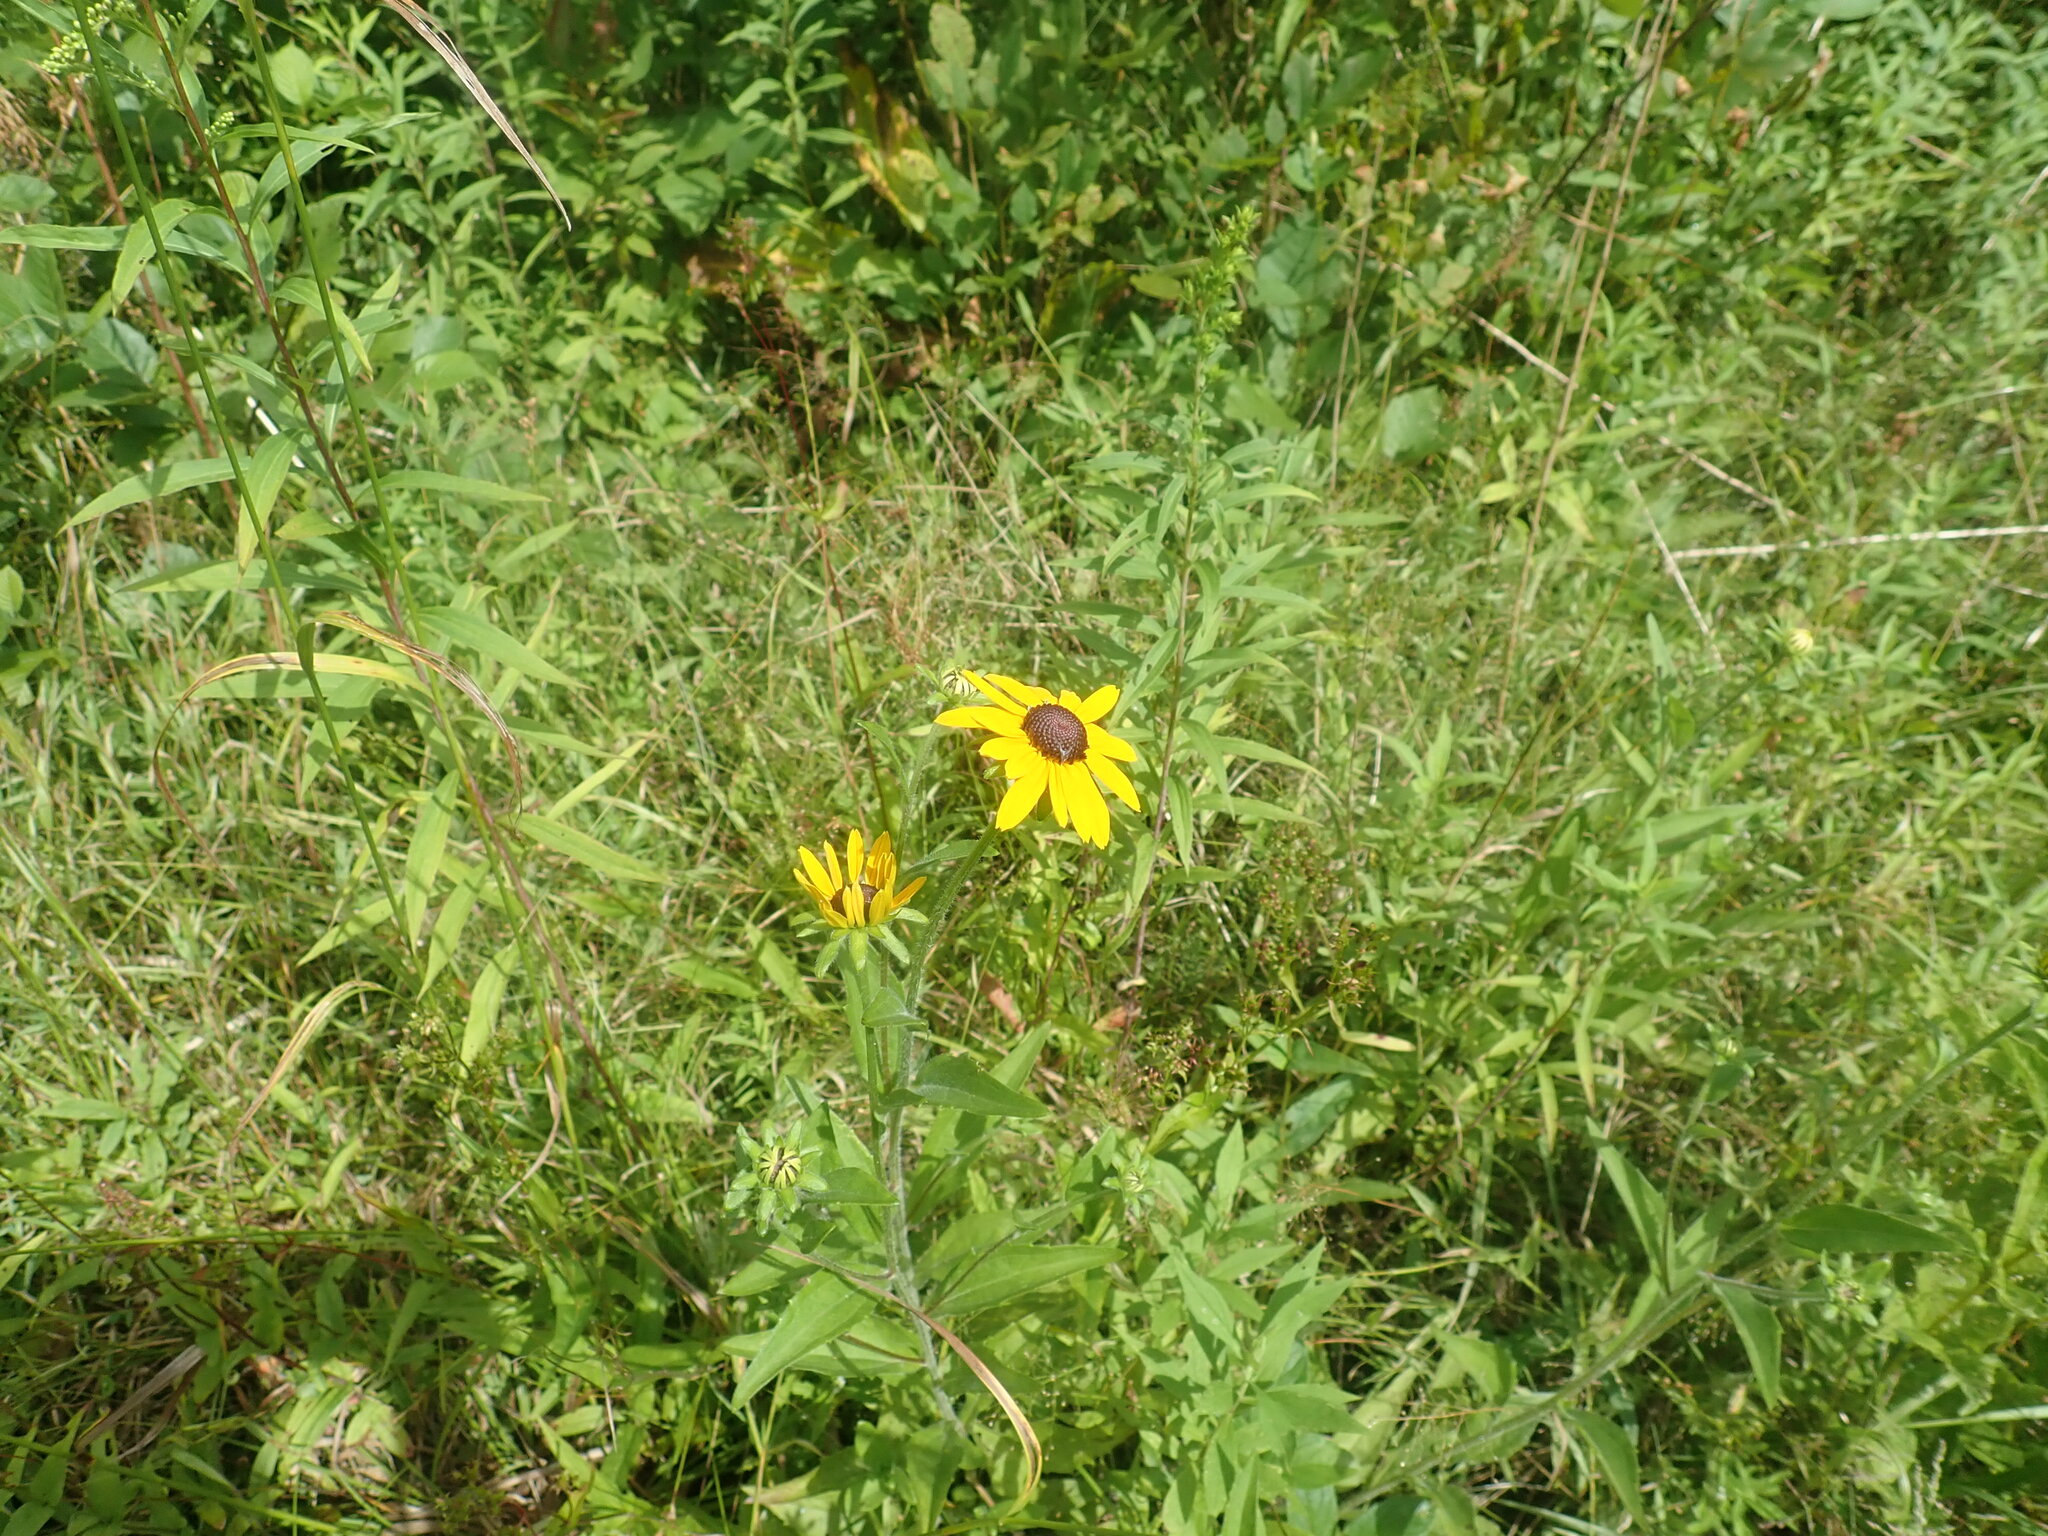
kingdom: Plantae
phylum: Tracheophyta
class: Magnoliopsida
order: Asterales
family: Asteraceae
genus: Rudbeckia
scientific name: Rudbeckia hirta
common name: Black-eyed-susan
